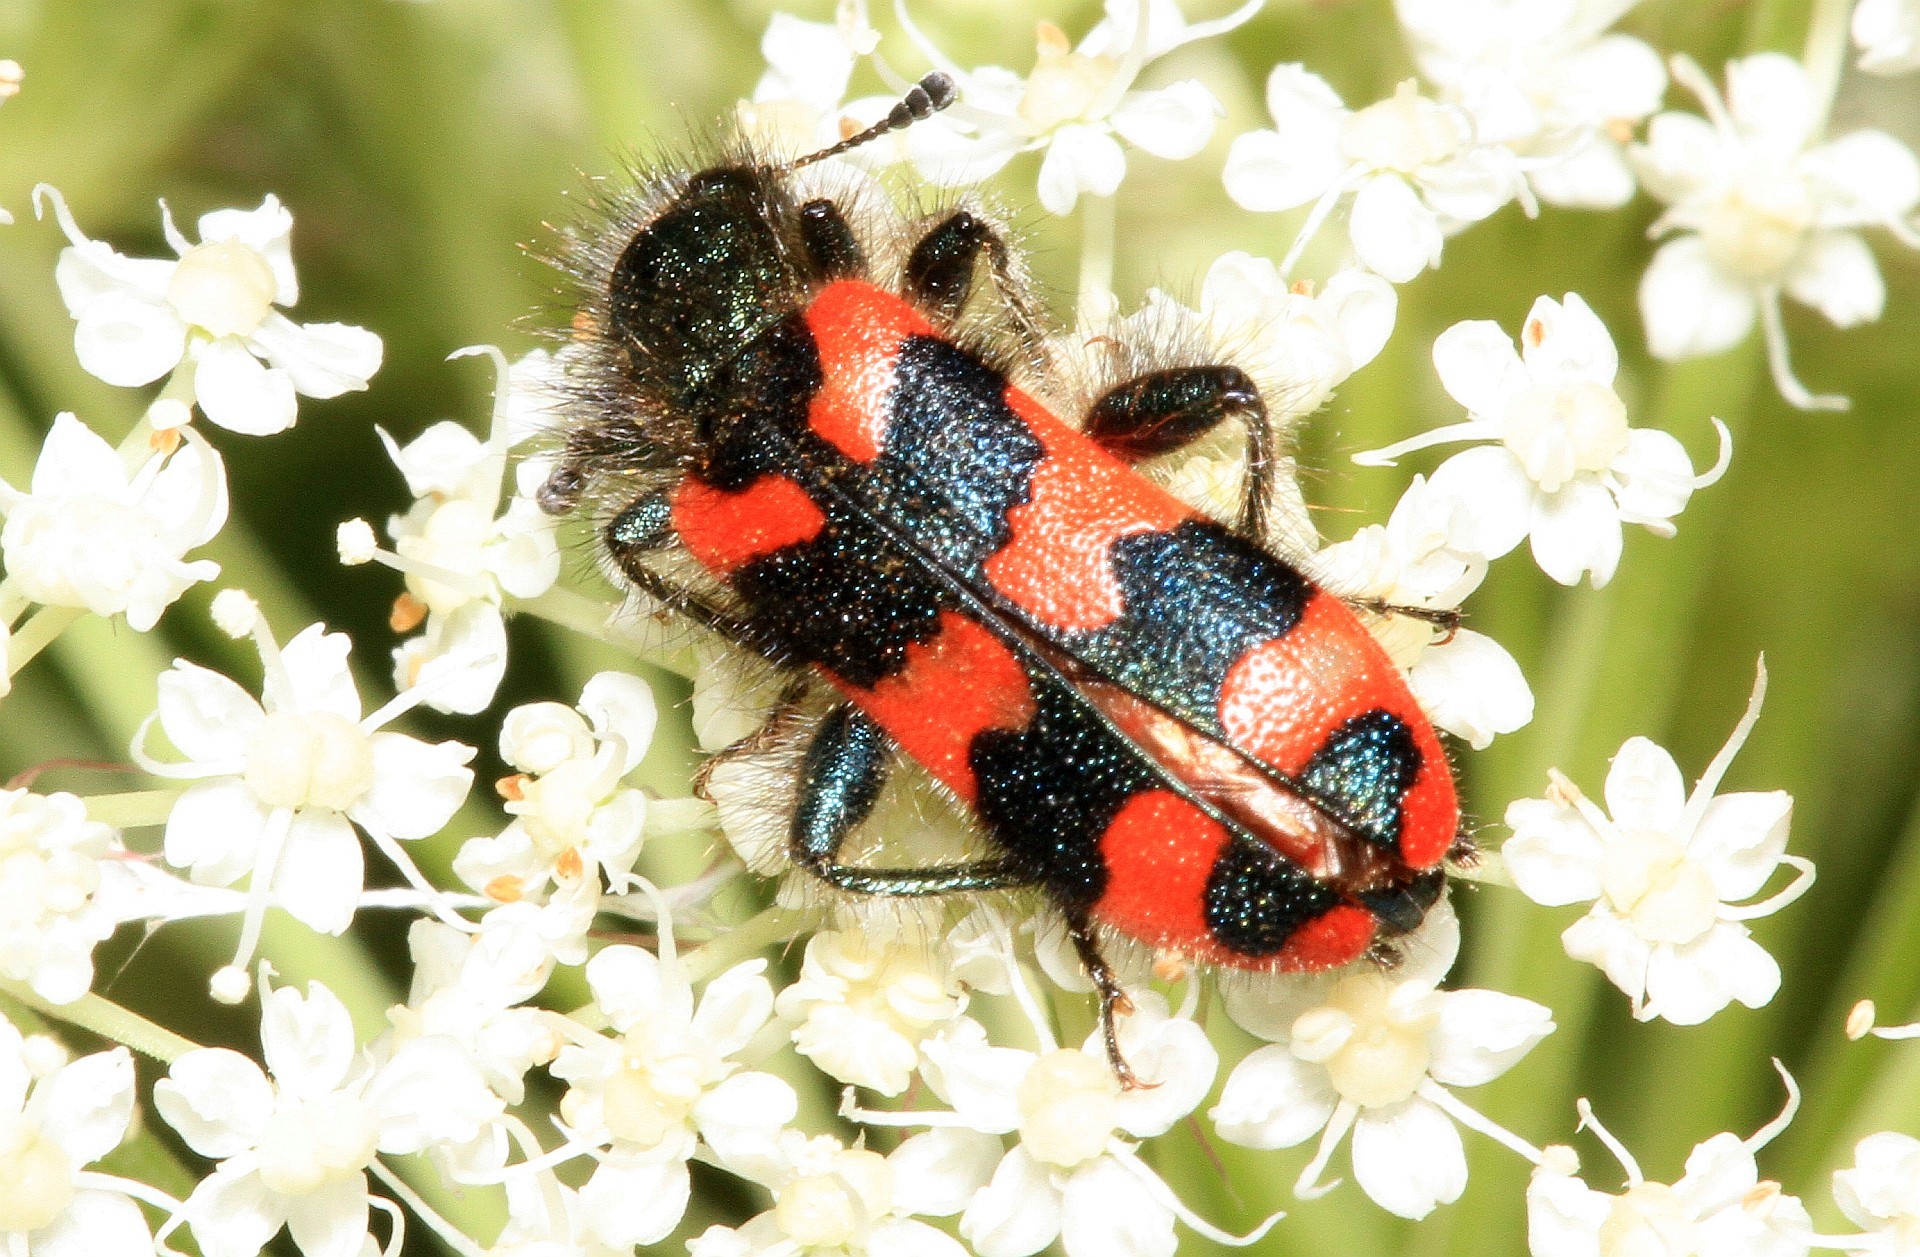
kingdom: Animalia
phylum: Arthropoda
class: Insecta
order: Coleoptera
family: Cleridae
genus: Trichodes
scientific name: Trichodes alvearius
